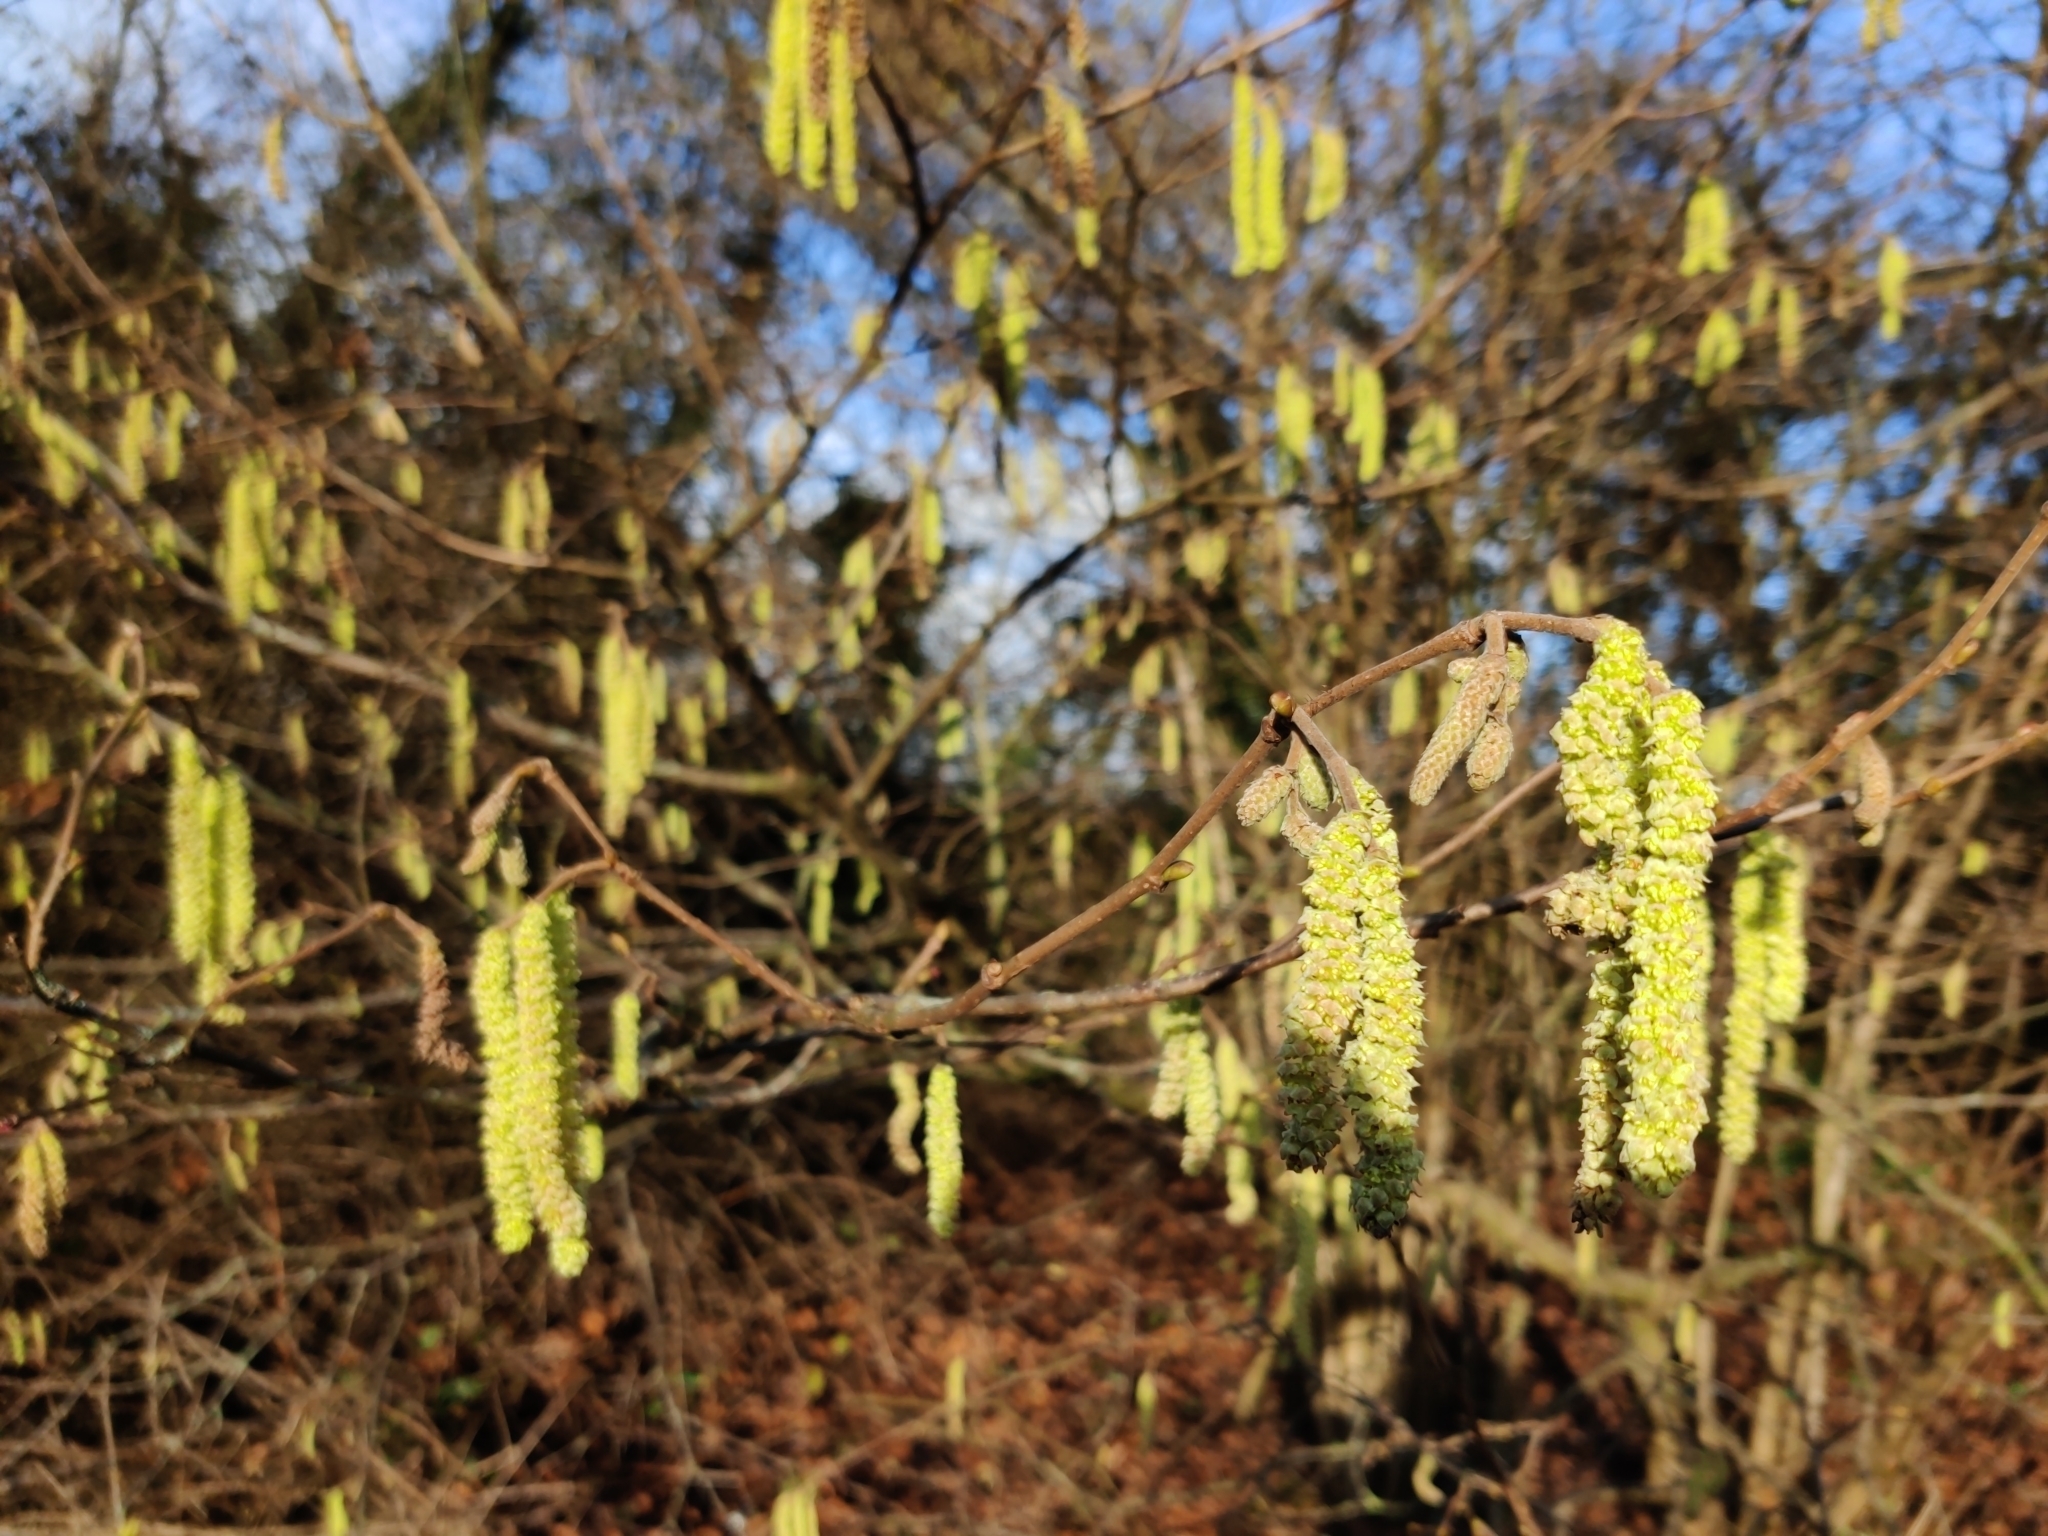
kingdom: Plantae
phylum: Tracheophyta
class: Magnoliopsida
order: Fagales
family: Betulaceae
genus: Corylus
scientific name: Corylus avellana
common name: European hazel
